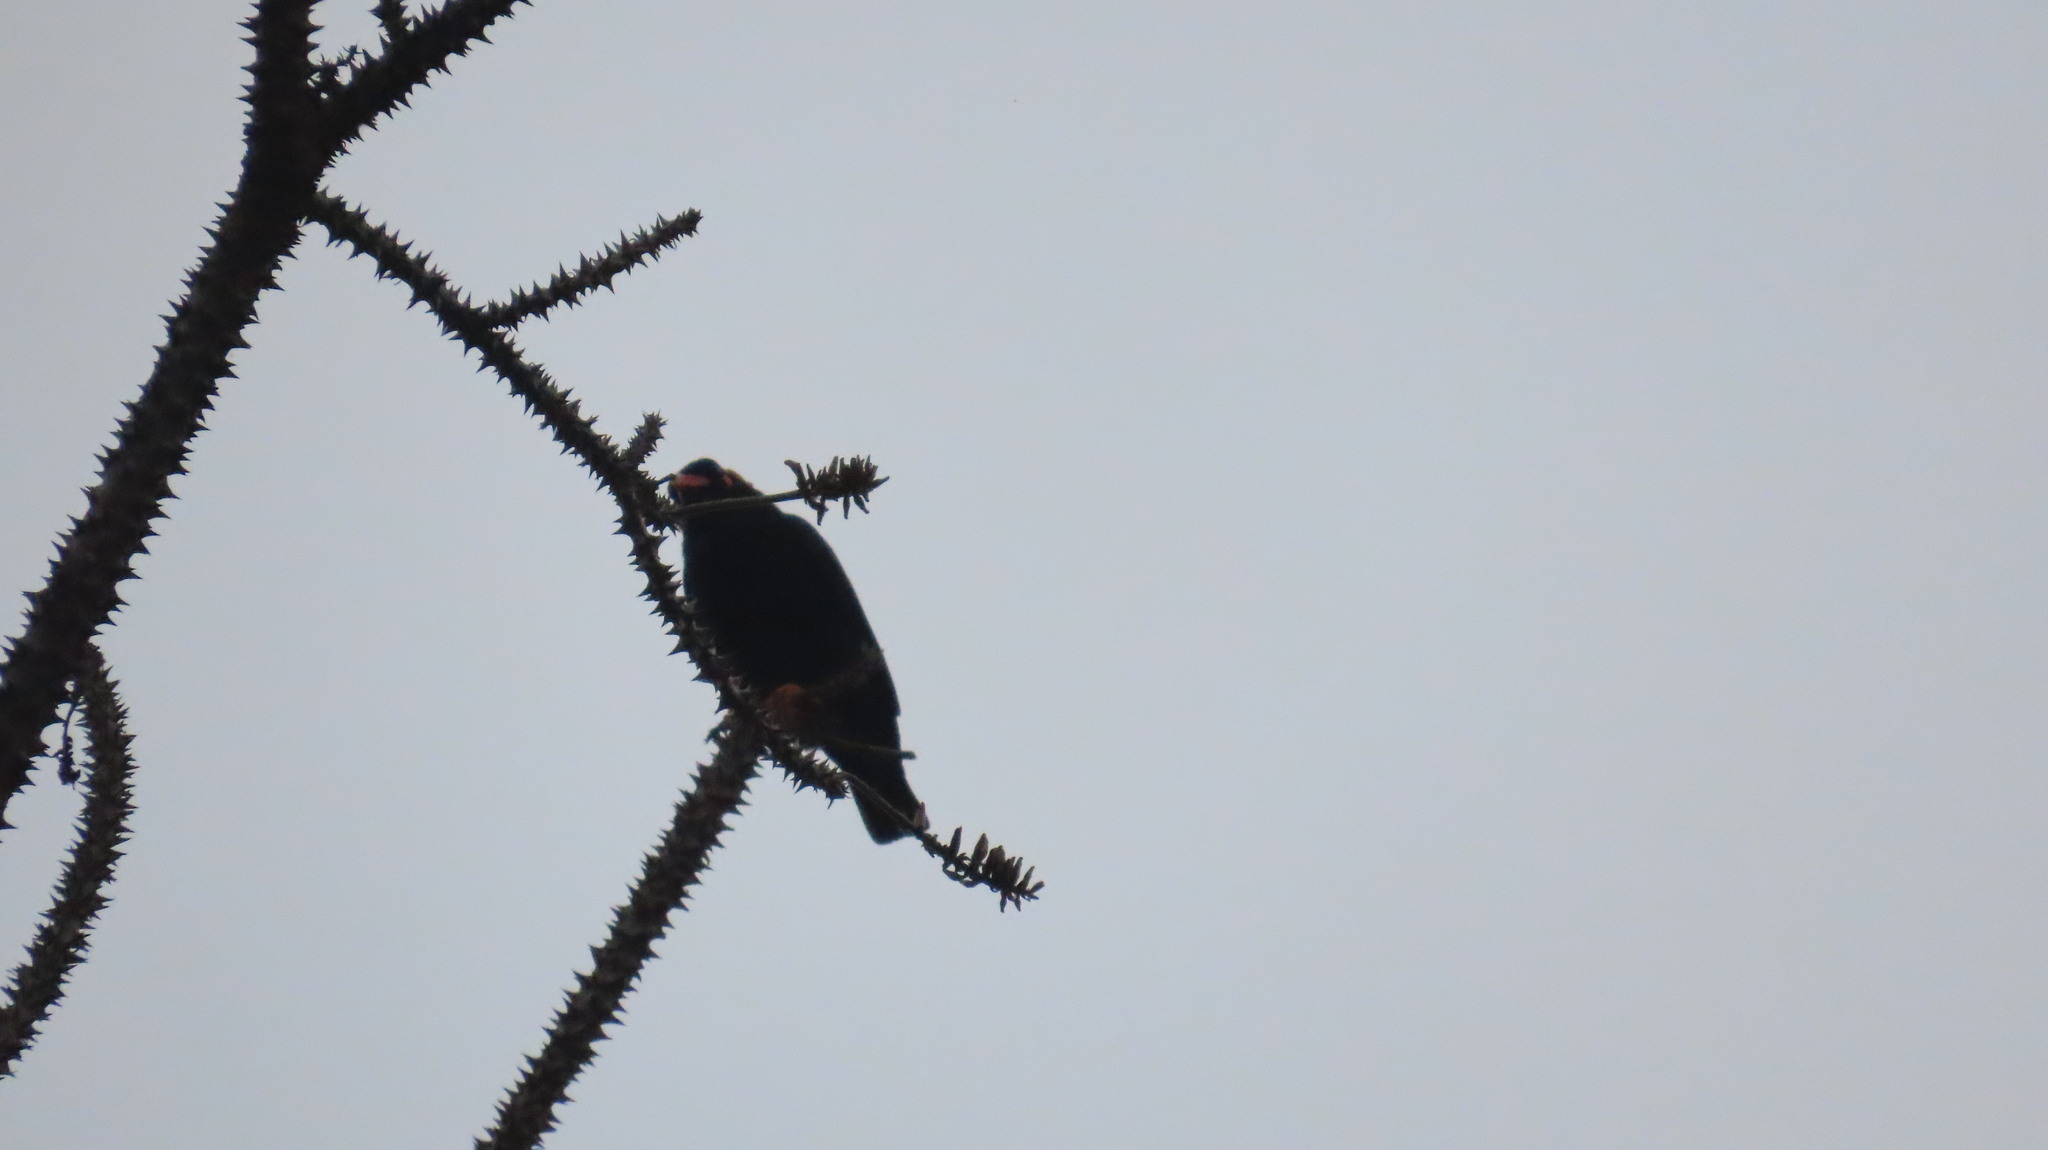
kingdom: Animalia
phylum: Chordata
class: Aves
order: Passeriformes
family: Sturnidae
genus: Gracula
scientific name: Gracula indica
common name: Southern hill myna
